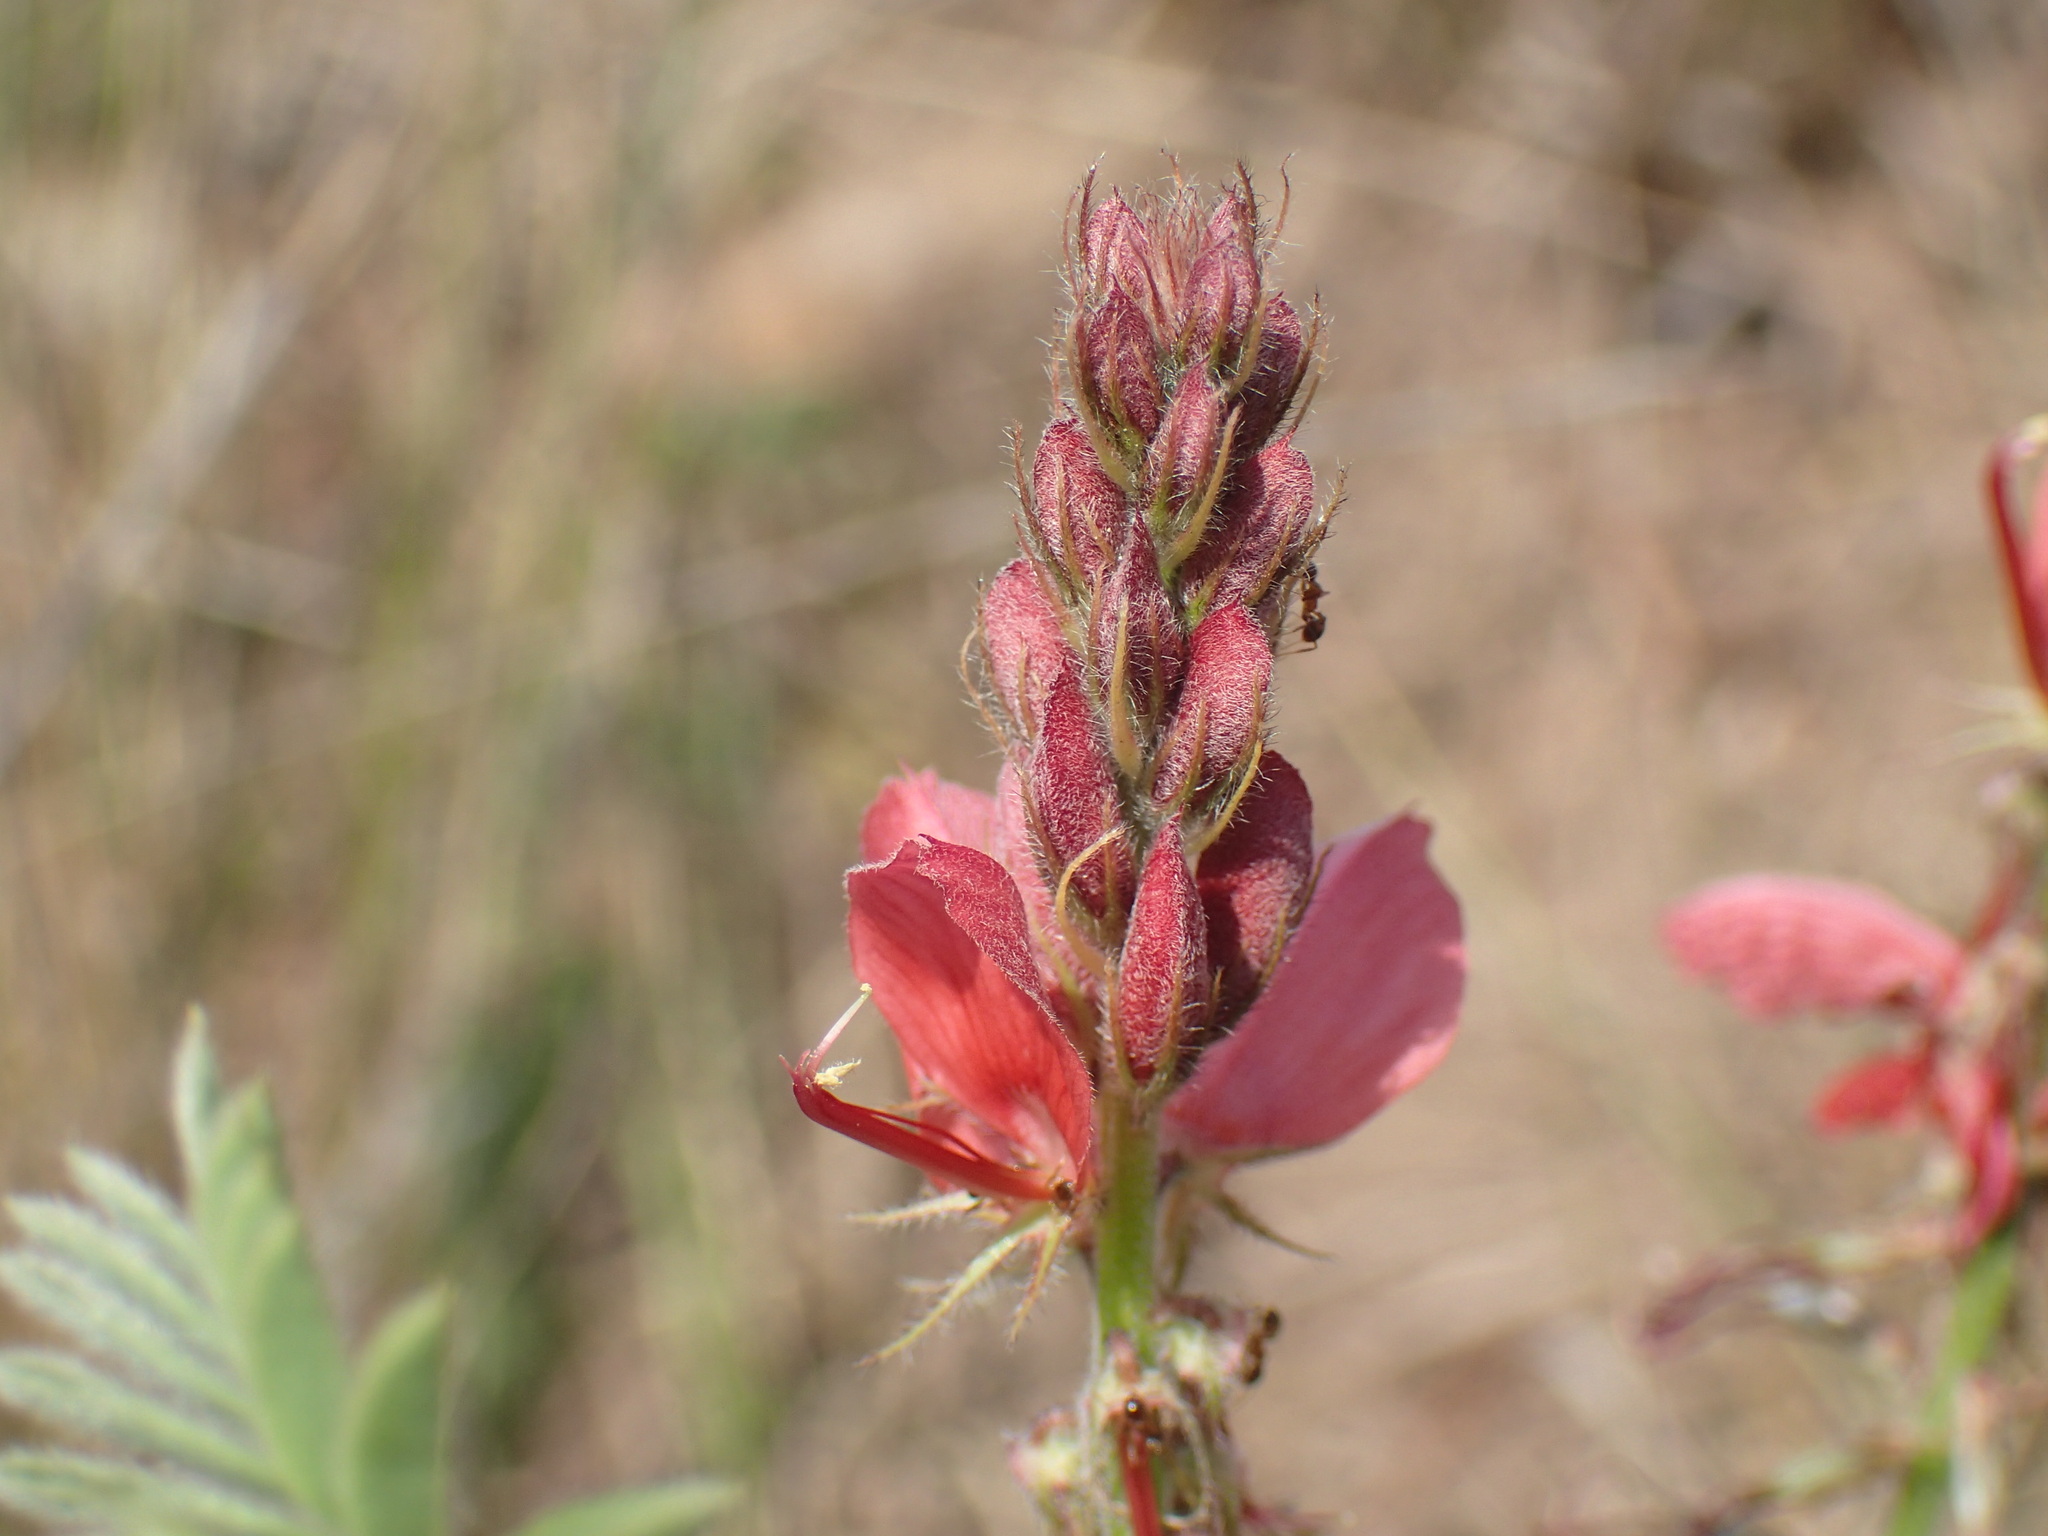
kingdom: Plantae
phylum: Tracheophyta
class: Magnoliopsida
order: Fabales
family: Fabaceae
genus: Indigofera
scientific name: Indigofera eriocarpa
